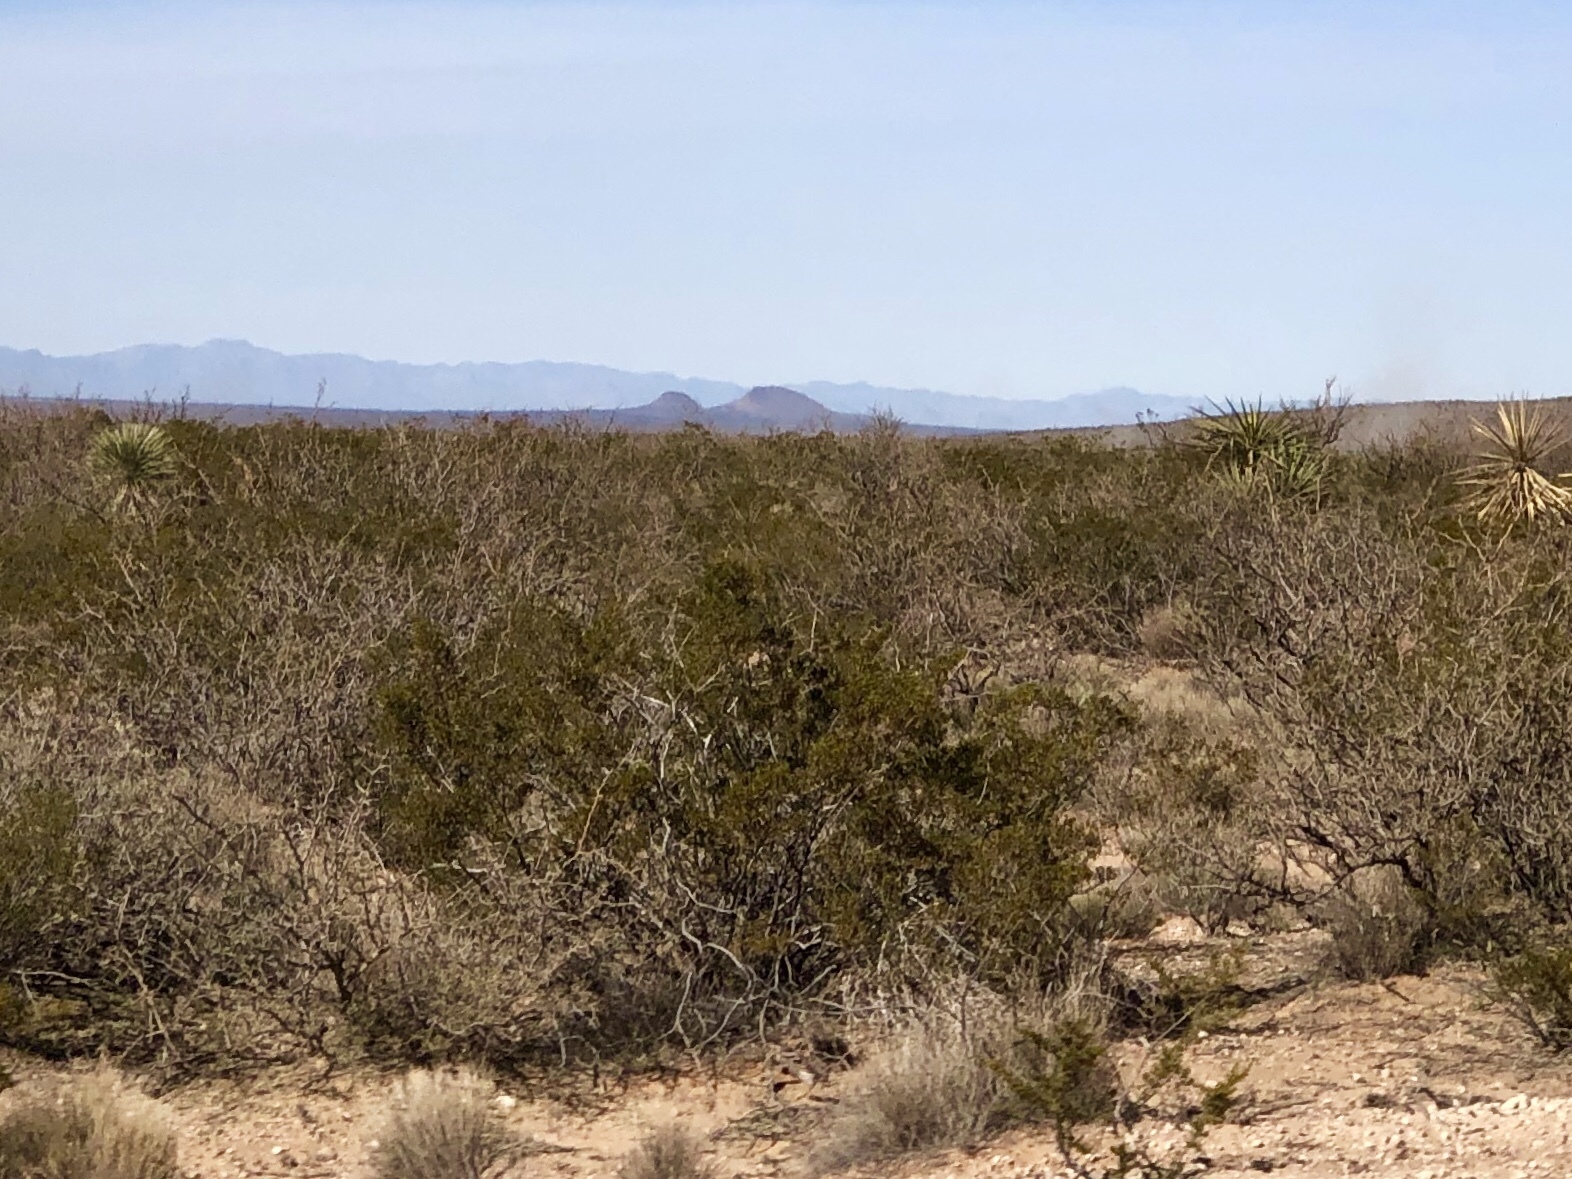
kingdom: Plantae
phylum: Tracheophyta
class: Magnoliopsida
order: Zygophyllales
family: Zygophyllaceae
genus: Larrea
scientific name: Larrea tridentata
